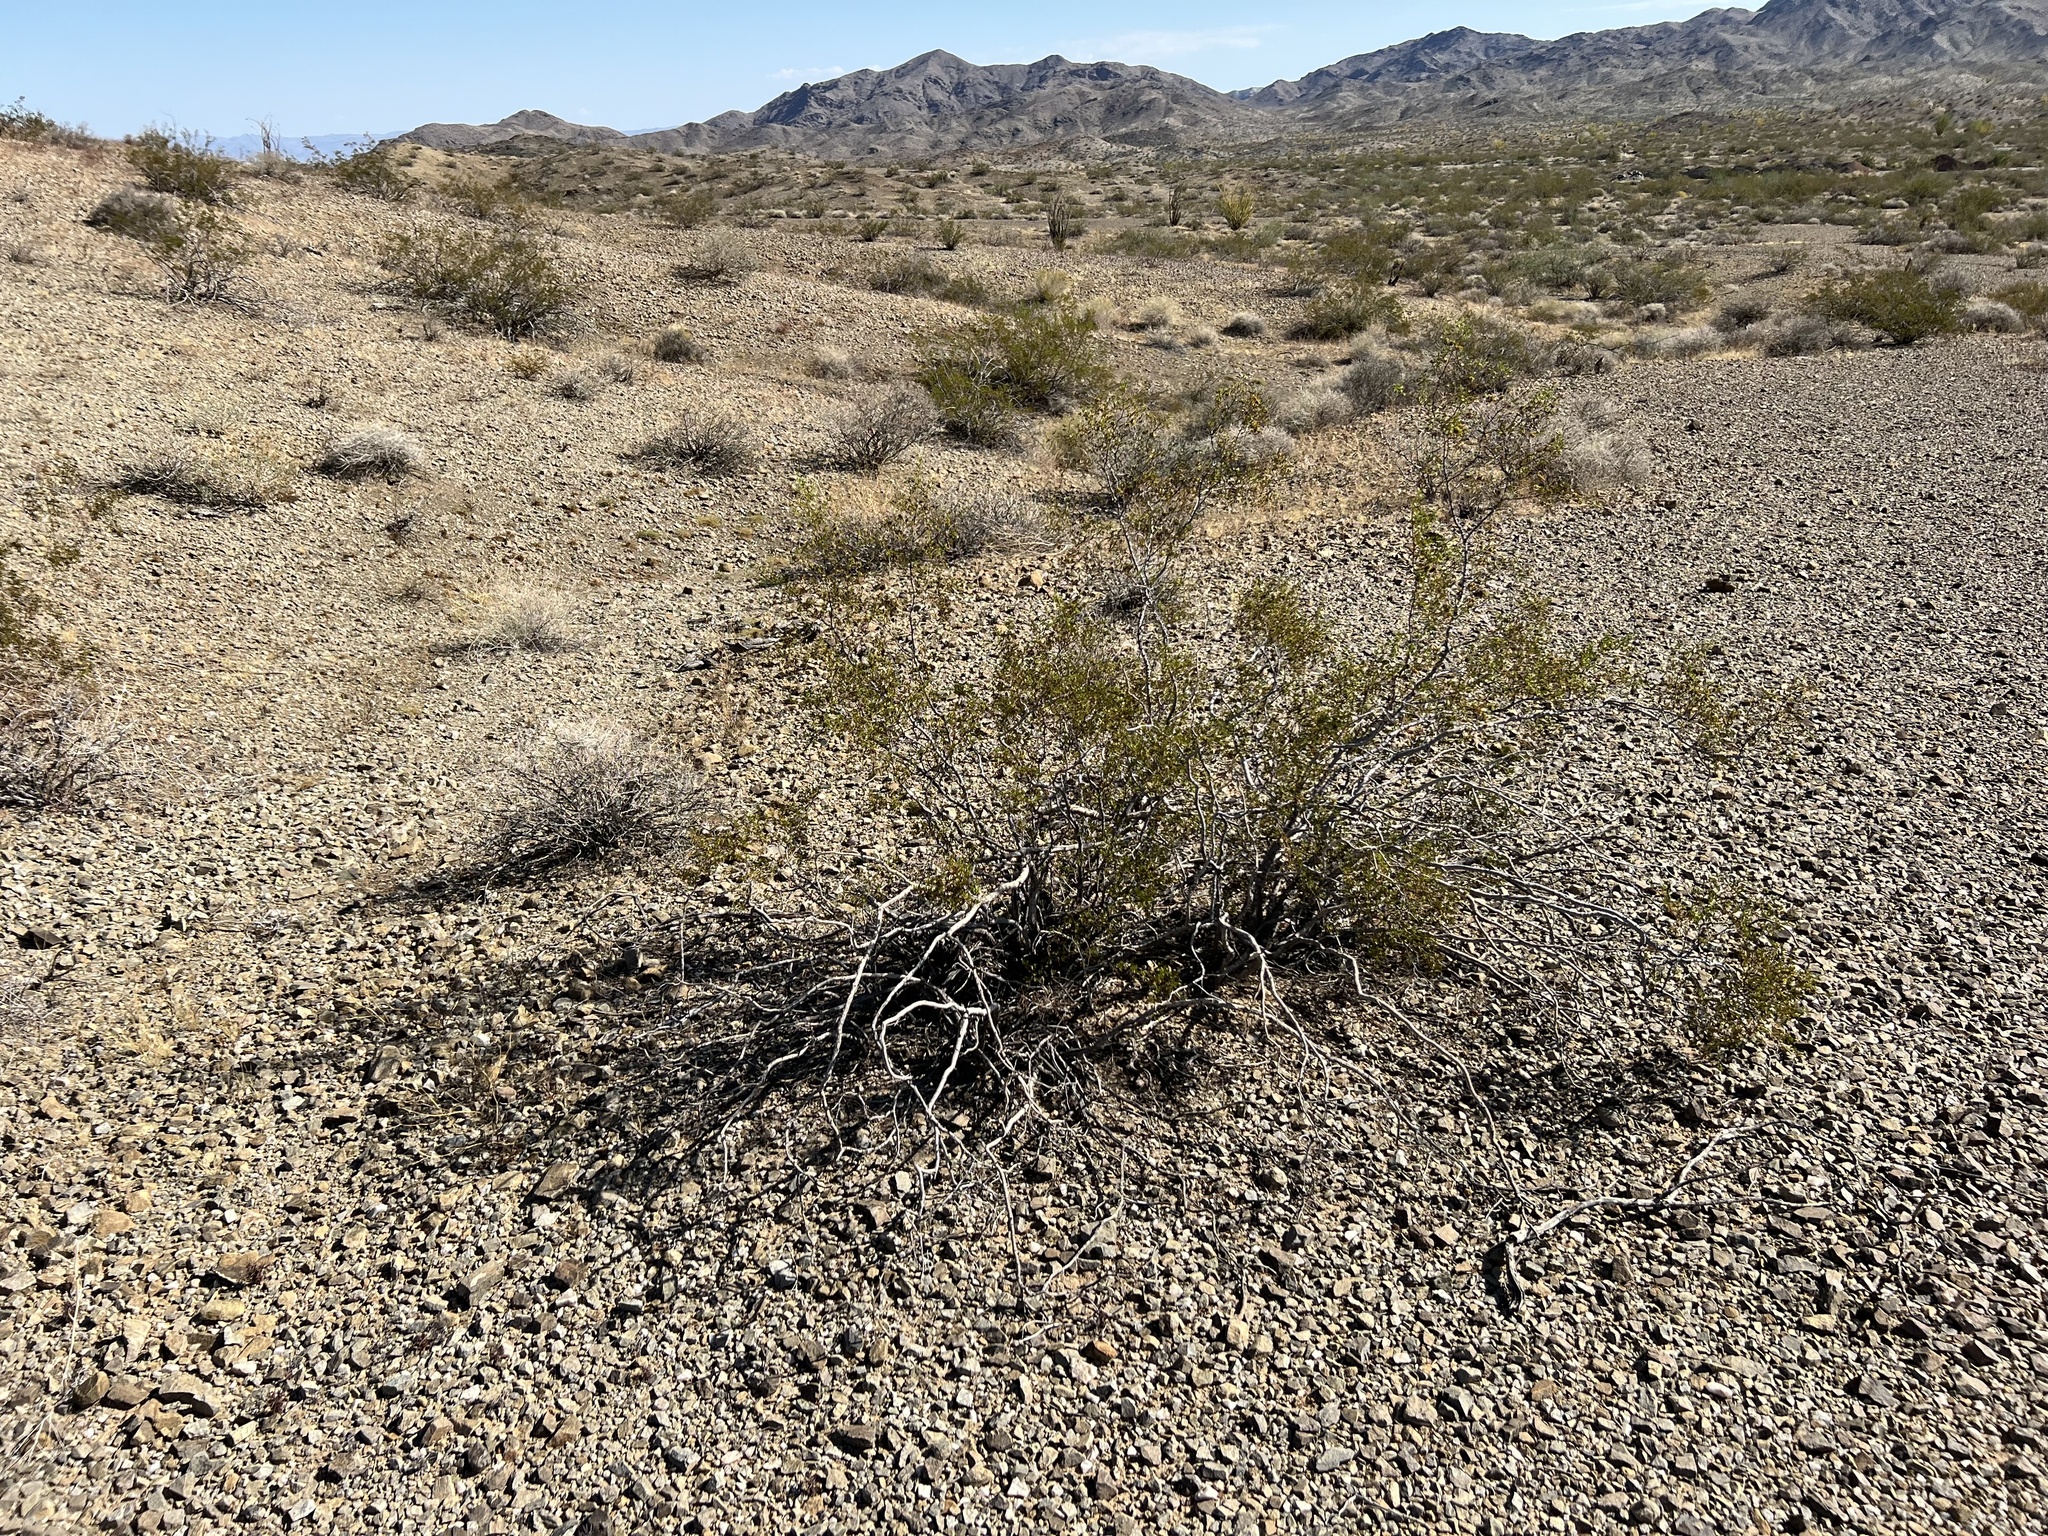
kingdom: Plantae
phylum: Tracheophyta
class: Magnoliopsida
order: Zygophyllales
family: Zygophyllaceae
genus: Larrea
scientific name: Larrea tridentata
